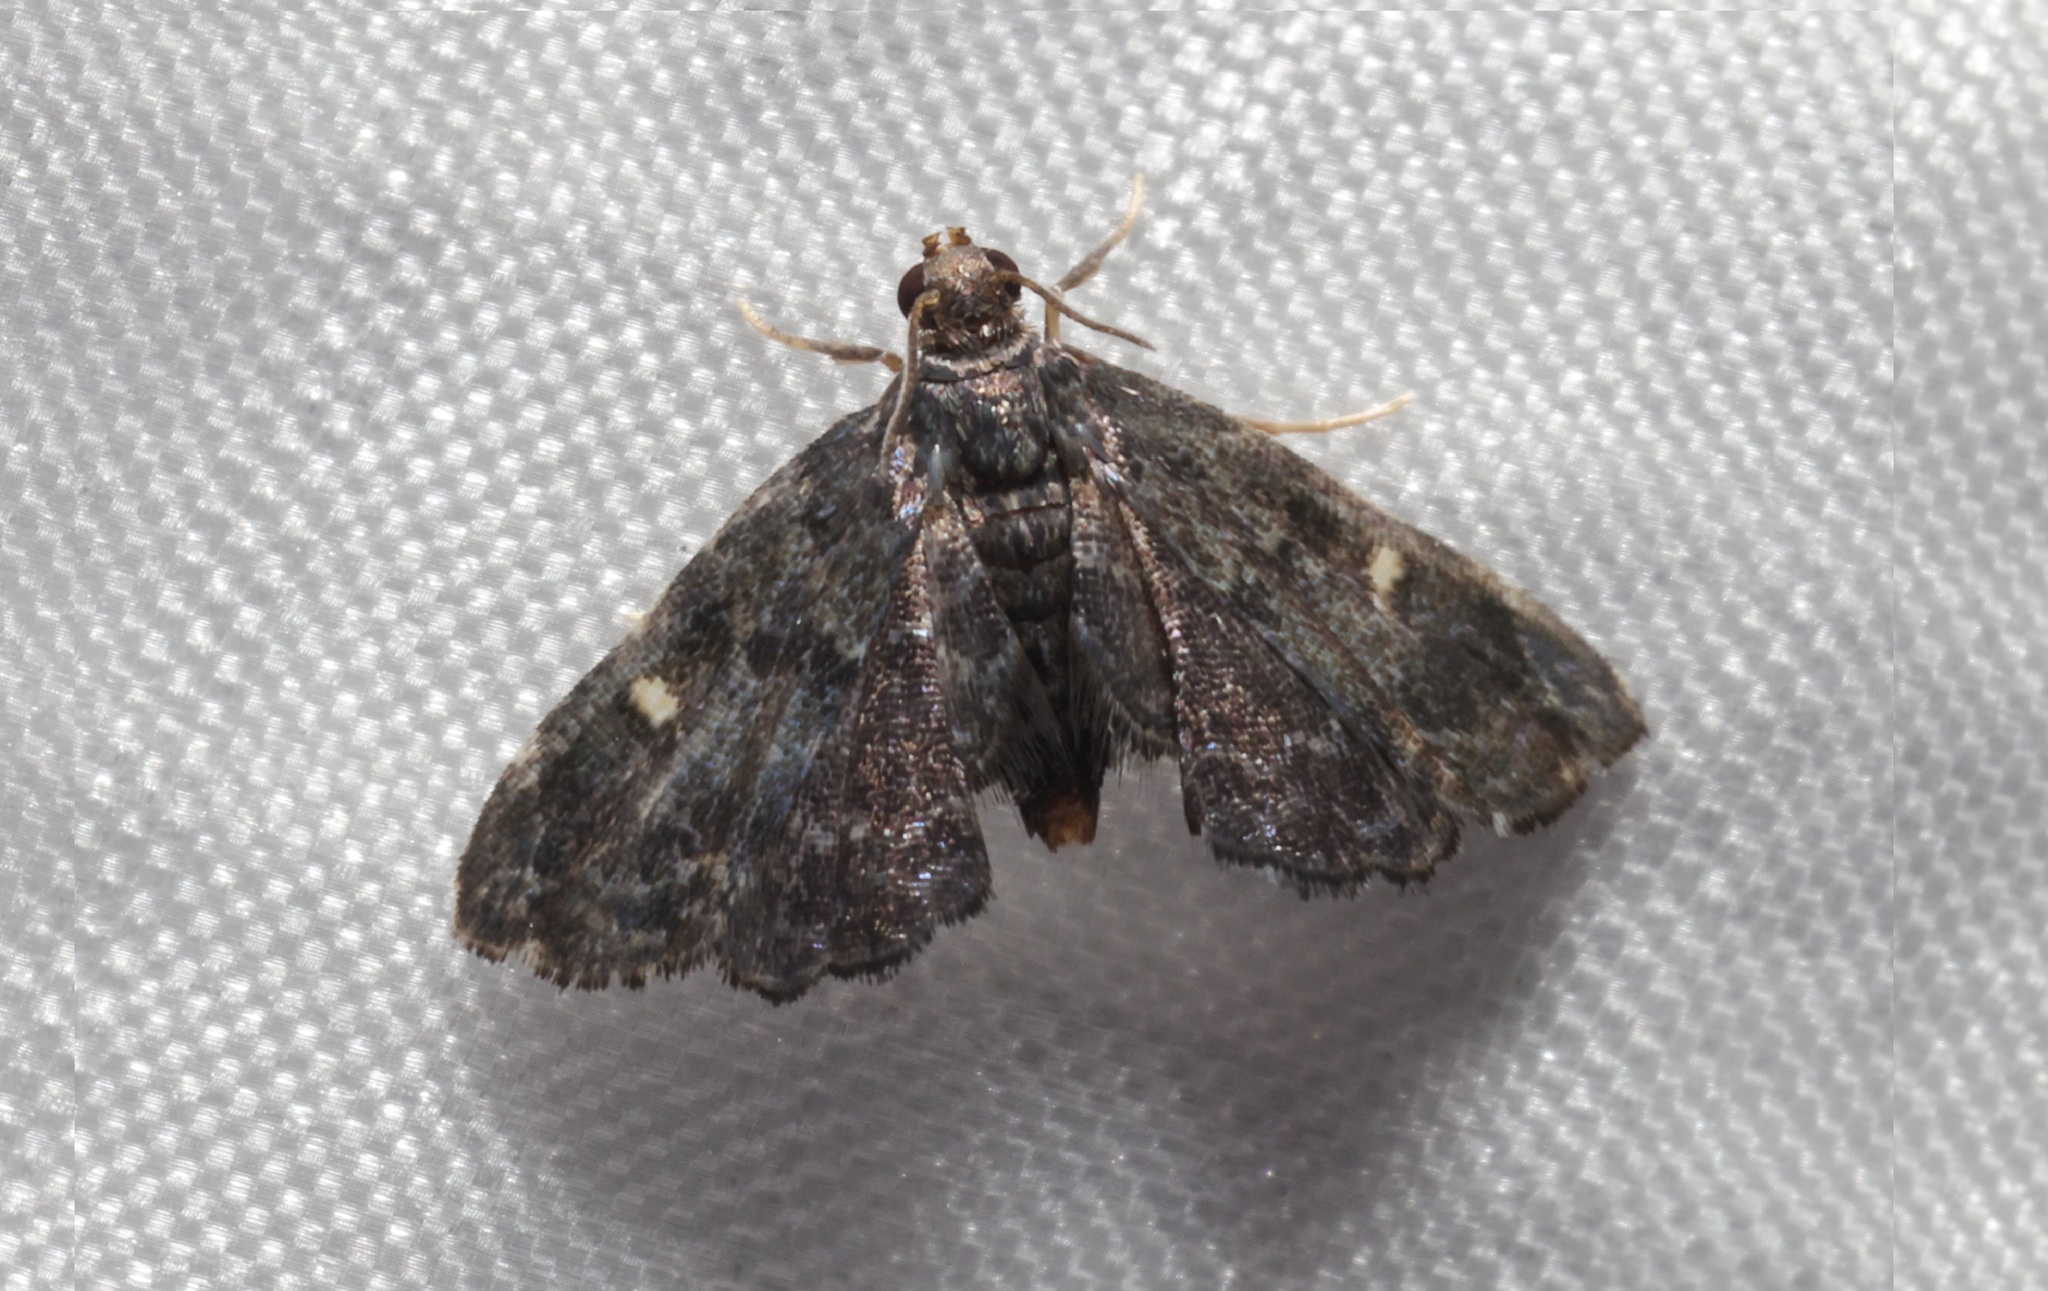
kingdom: Animalia
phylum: Arthropoda
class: Insecta
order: Lepidoptera
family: Pyralidae
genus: Drosophantis
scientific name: Drosophantis caeruleata
